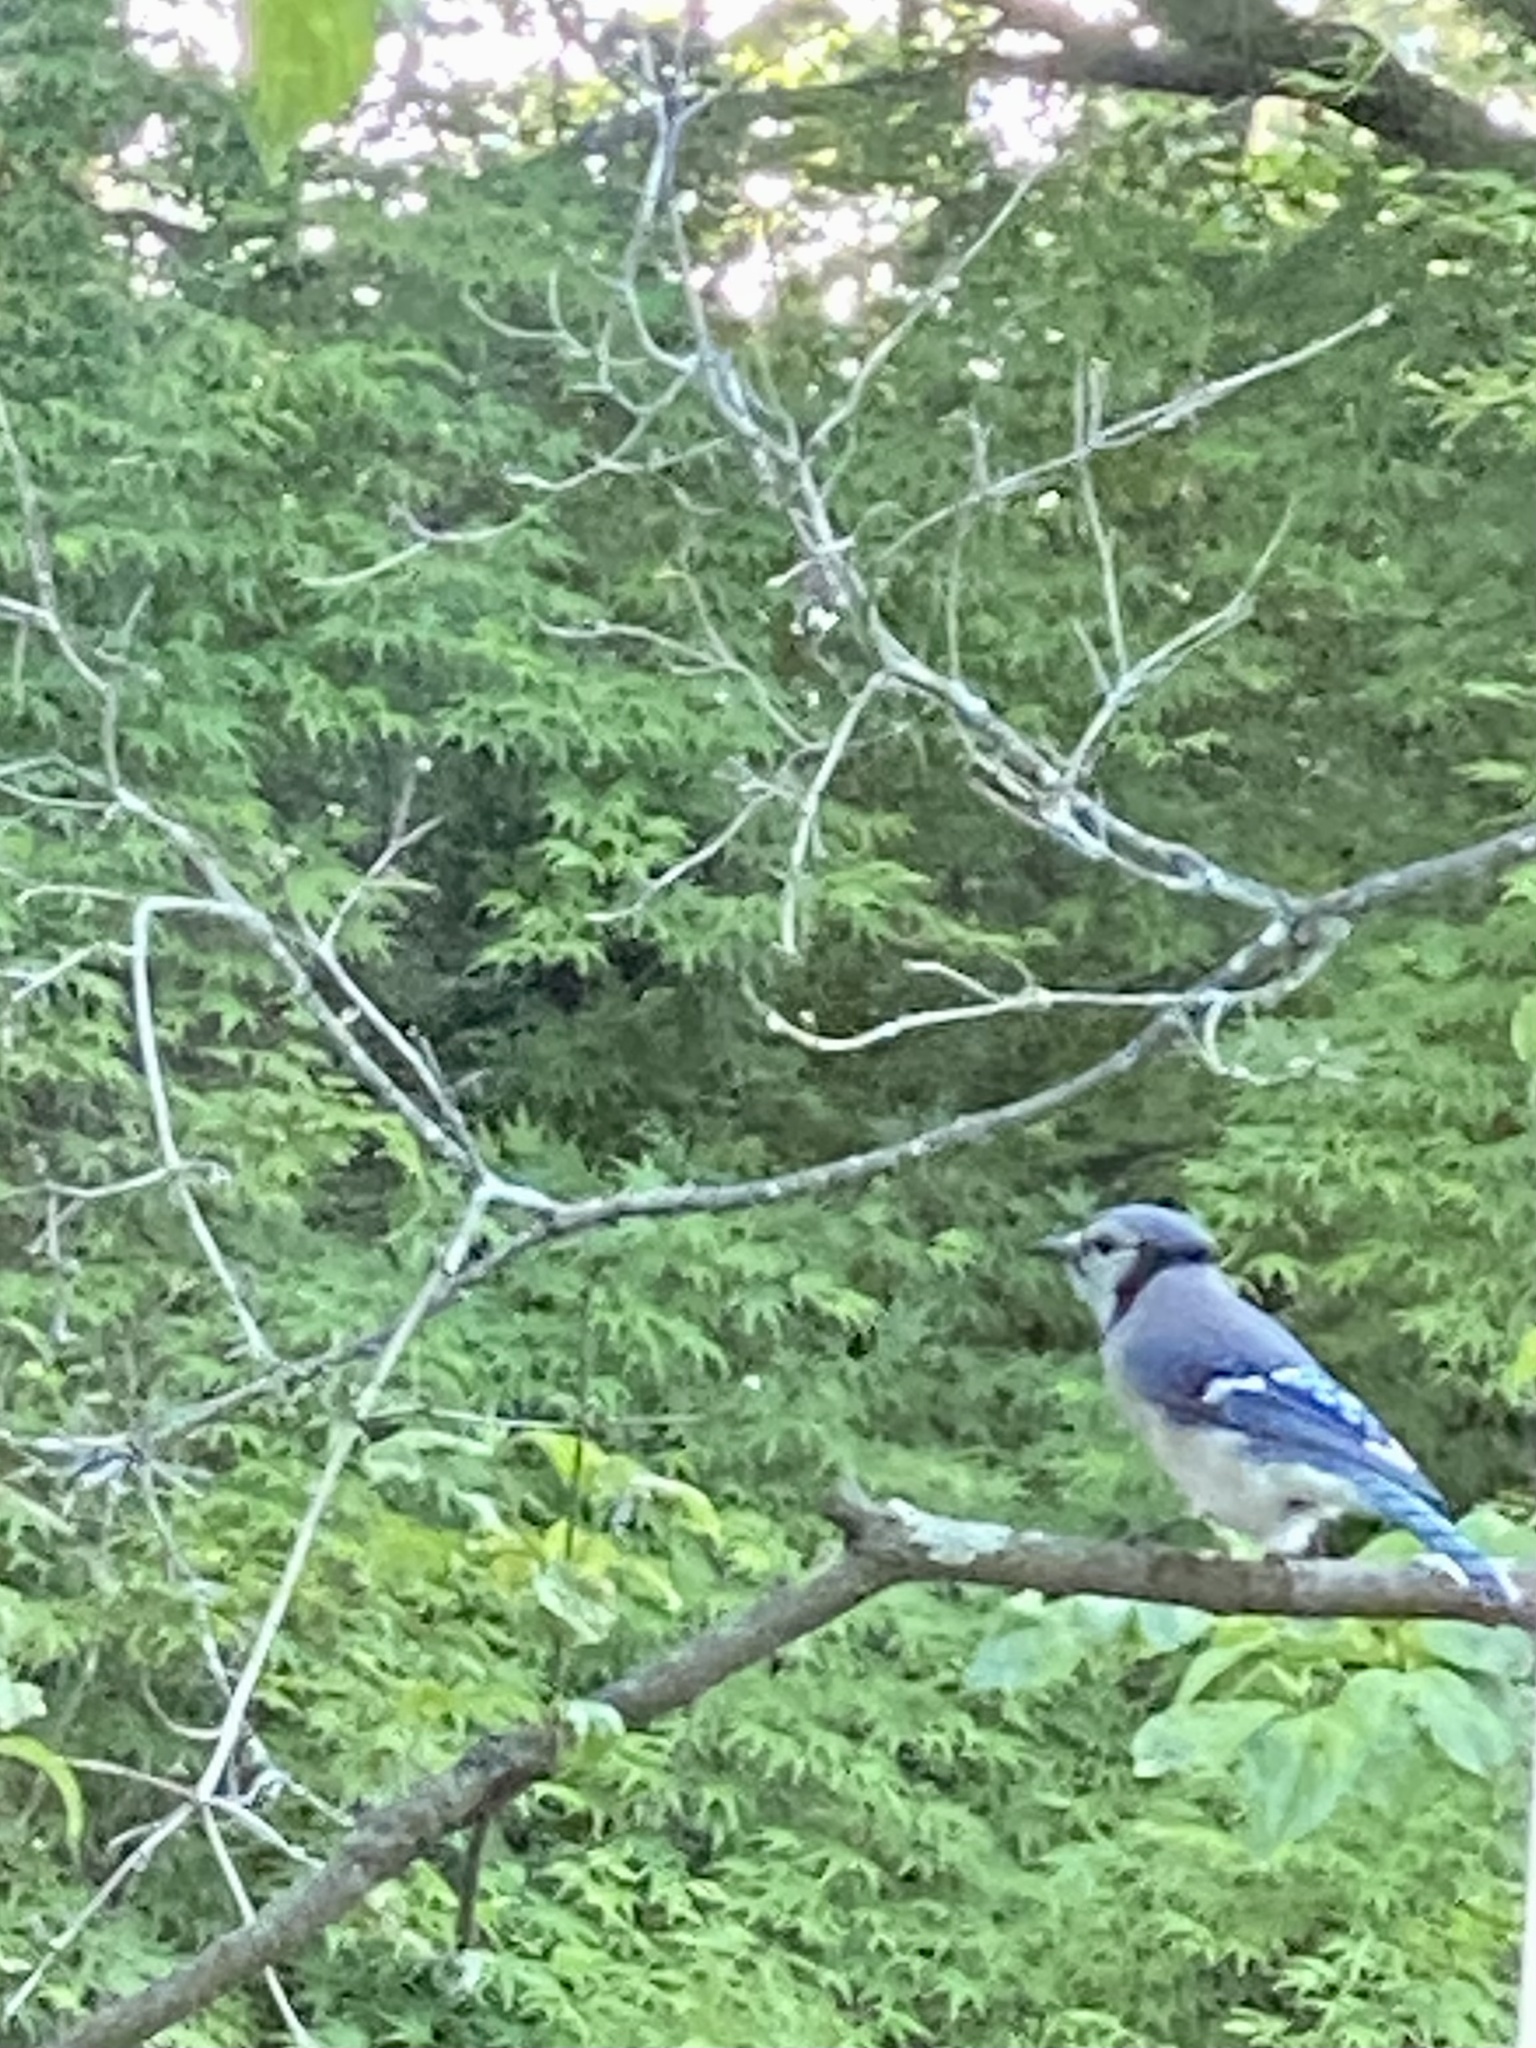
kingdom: Animalia
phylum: Chordata
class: Aves
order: Passeriformes
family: Corvidae
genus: Cyanocitta
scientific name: Cyanocitta cristata
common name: Blue jay
